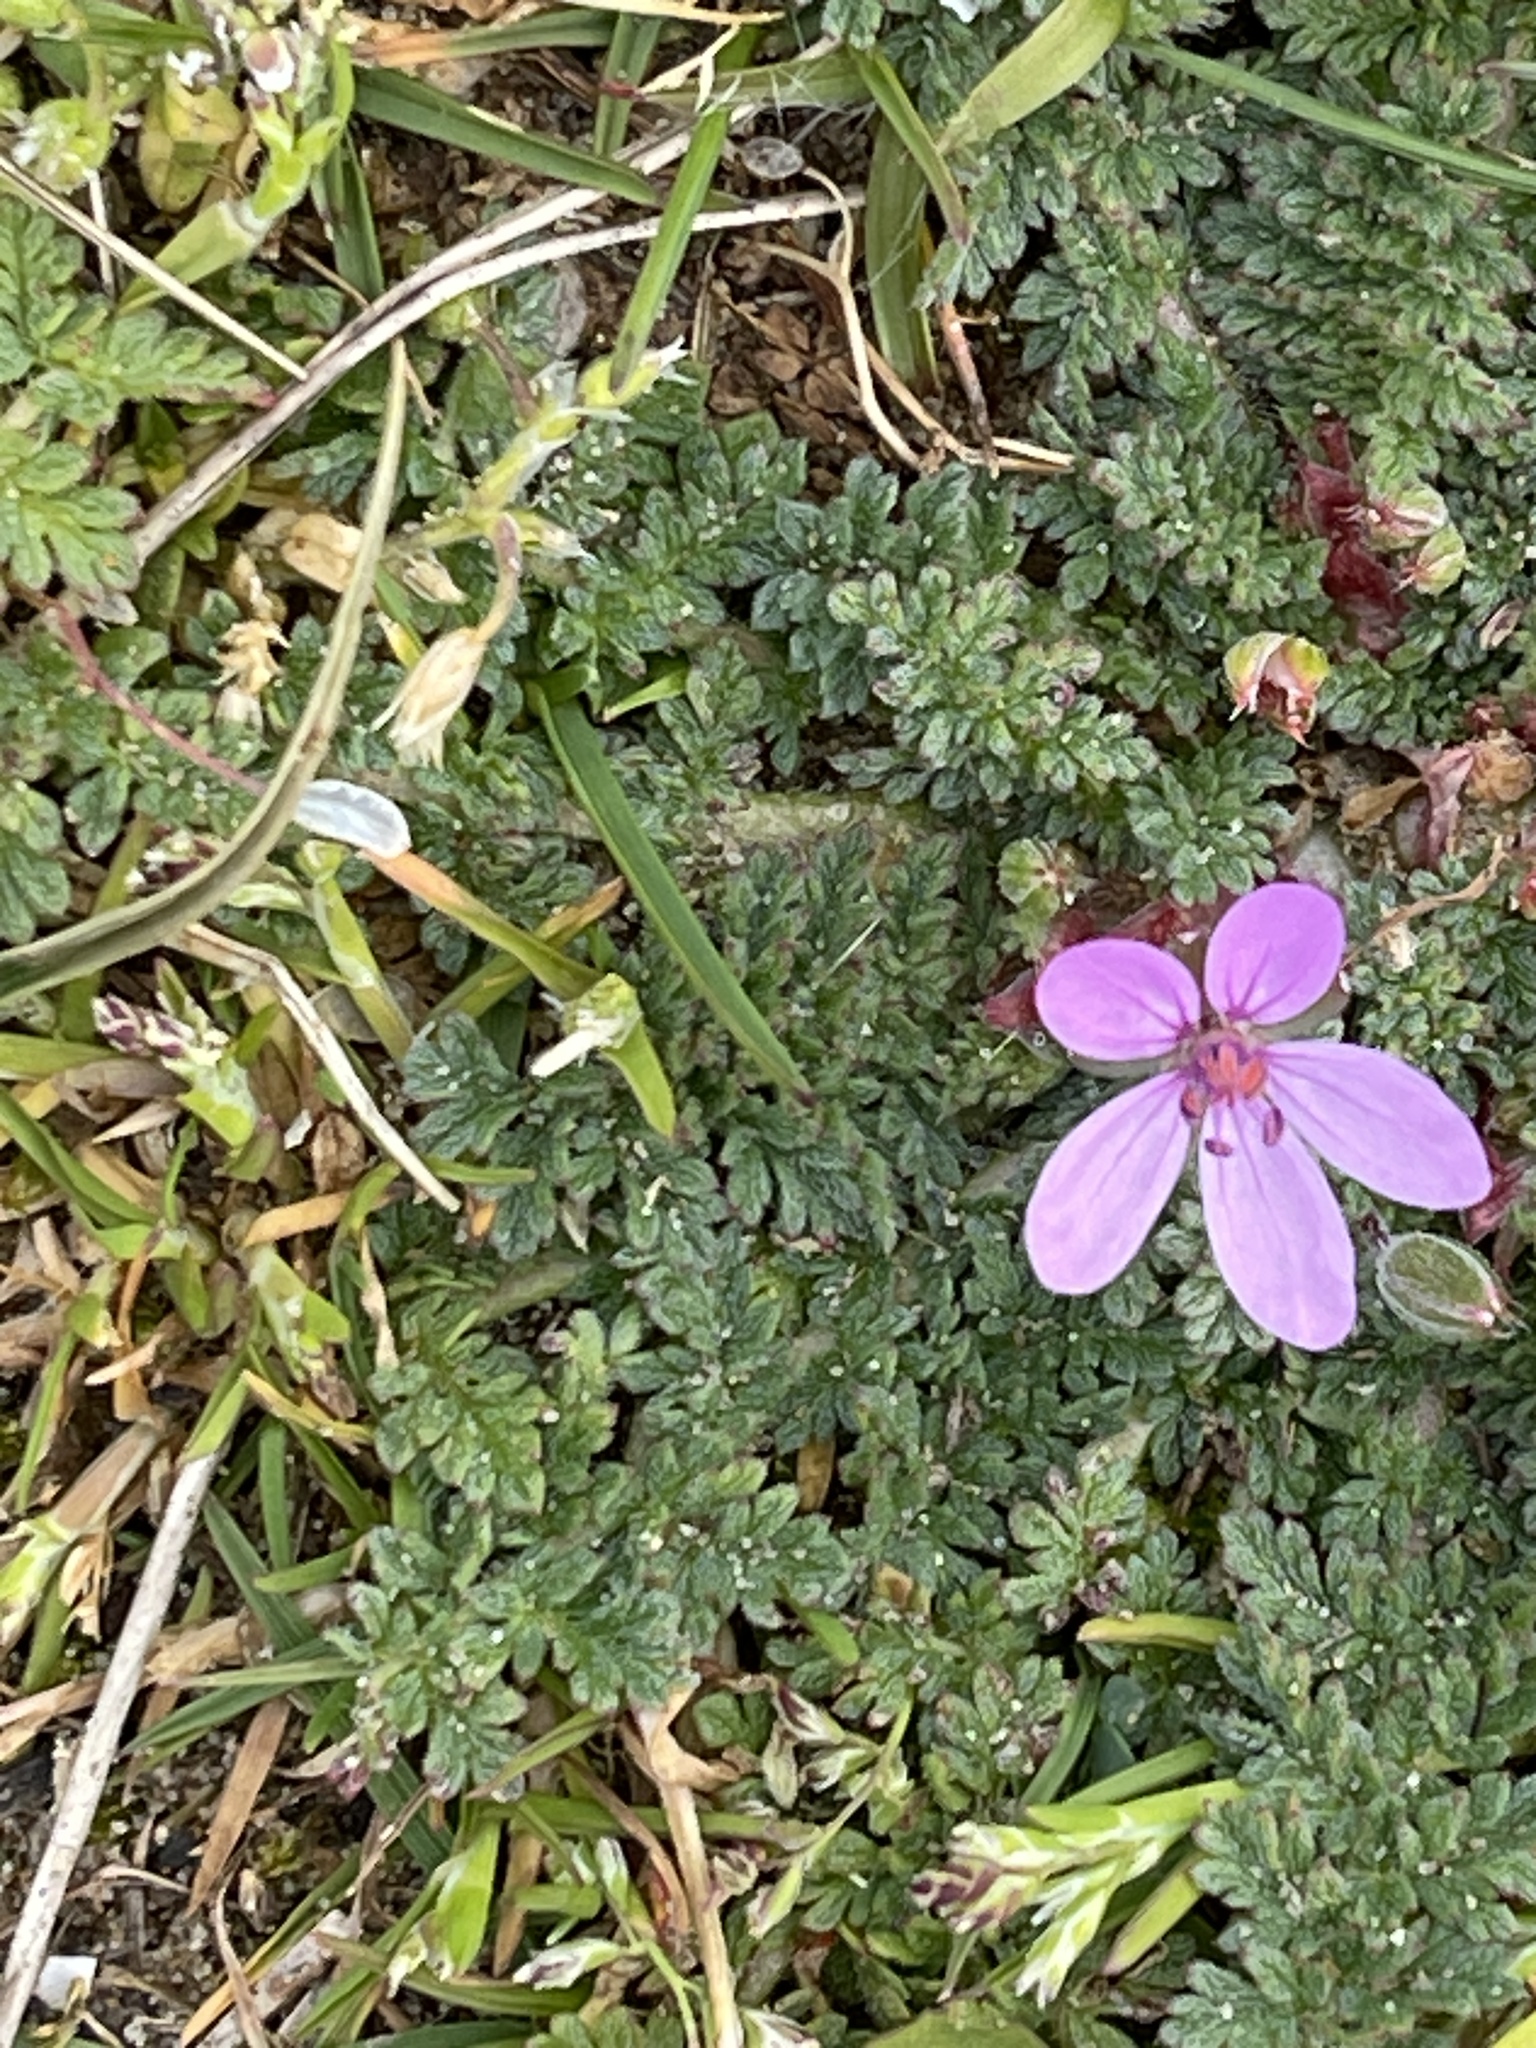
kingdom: Plantae
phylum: Tracheophyta
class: Magnoliopsida
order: Geraniales
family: Geraniaceae
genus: Erodium
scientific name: Erodium cicutarium
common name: Common stork's-bill
